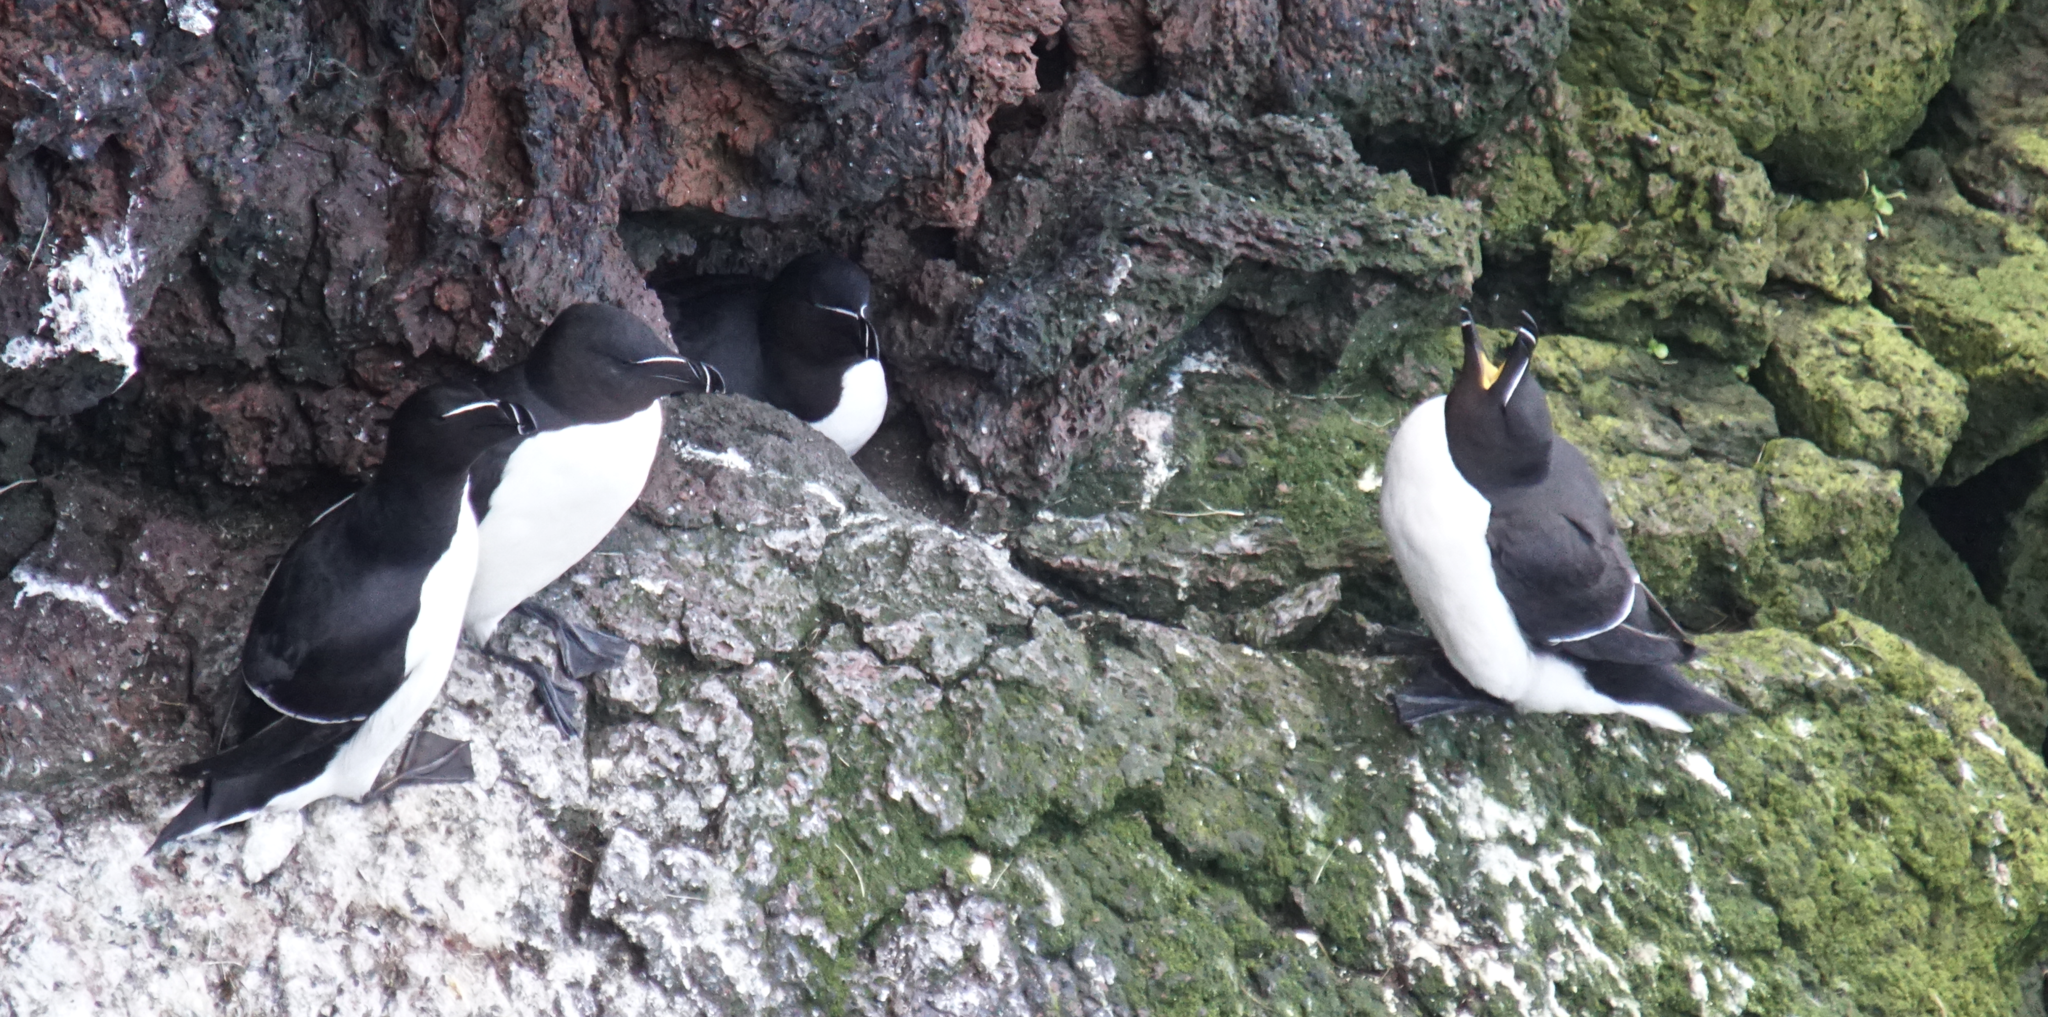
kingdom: Animalia
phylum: Chordata
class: Aves
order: Charadriiformes
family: Alcidae
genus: Alca
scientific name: Alca torda
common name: Razorbill
